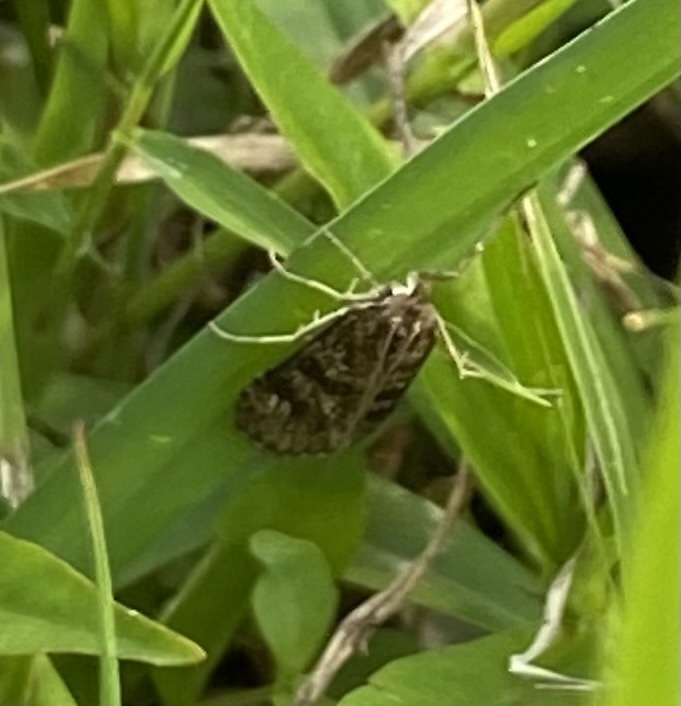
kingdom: Animalia
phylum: Arthropoda
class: Insecta
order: Lepidoptera
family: Crambidae
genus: Nomophila
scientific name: Nomophila nearctica
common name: American rush veneer
